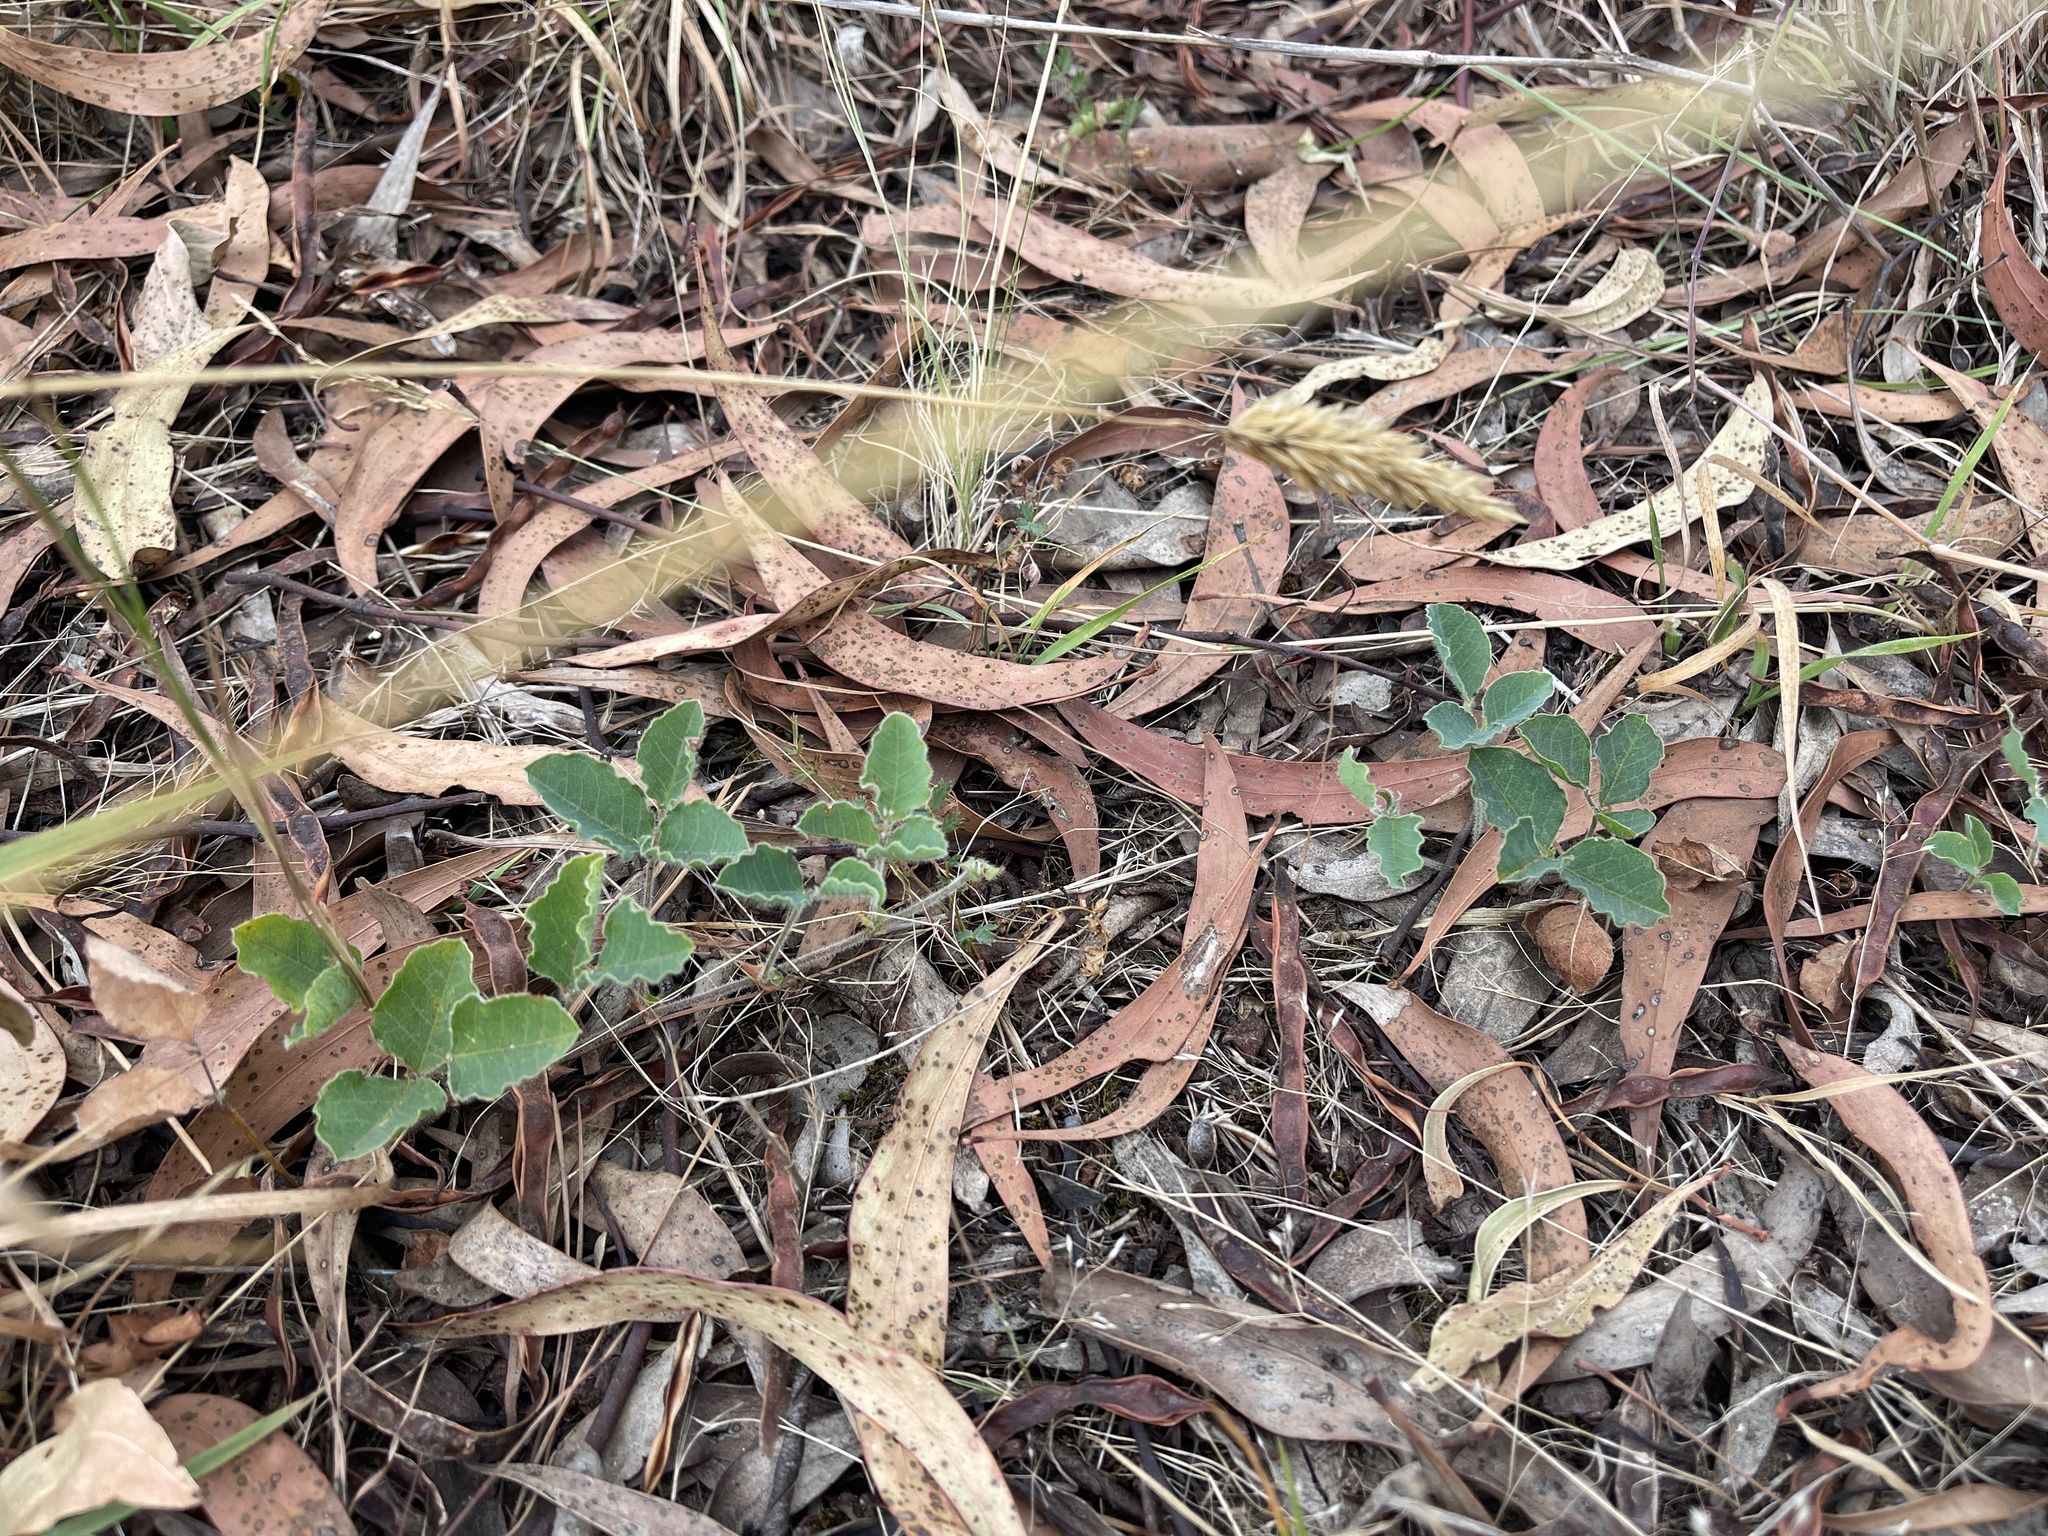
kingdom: Plantae
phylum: Tracheophyta
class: Magnoliopsida
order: Fabales
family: Fabaceae
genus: Kennedia
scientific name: Kennedia prostrata
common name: Running-postman
